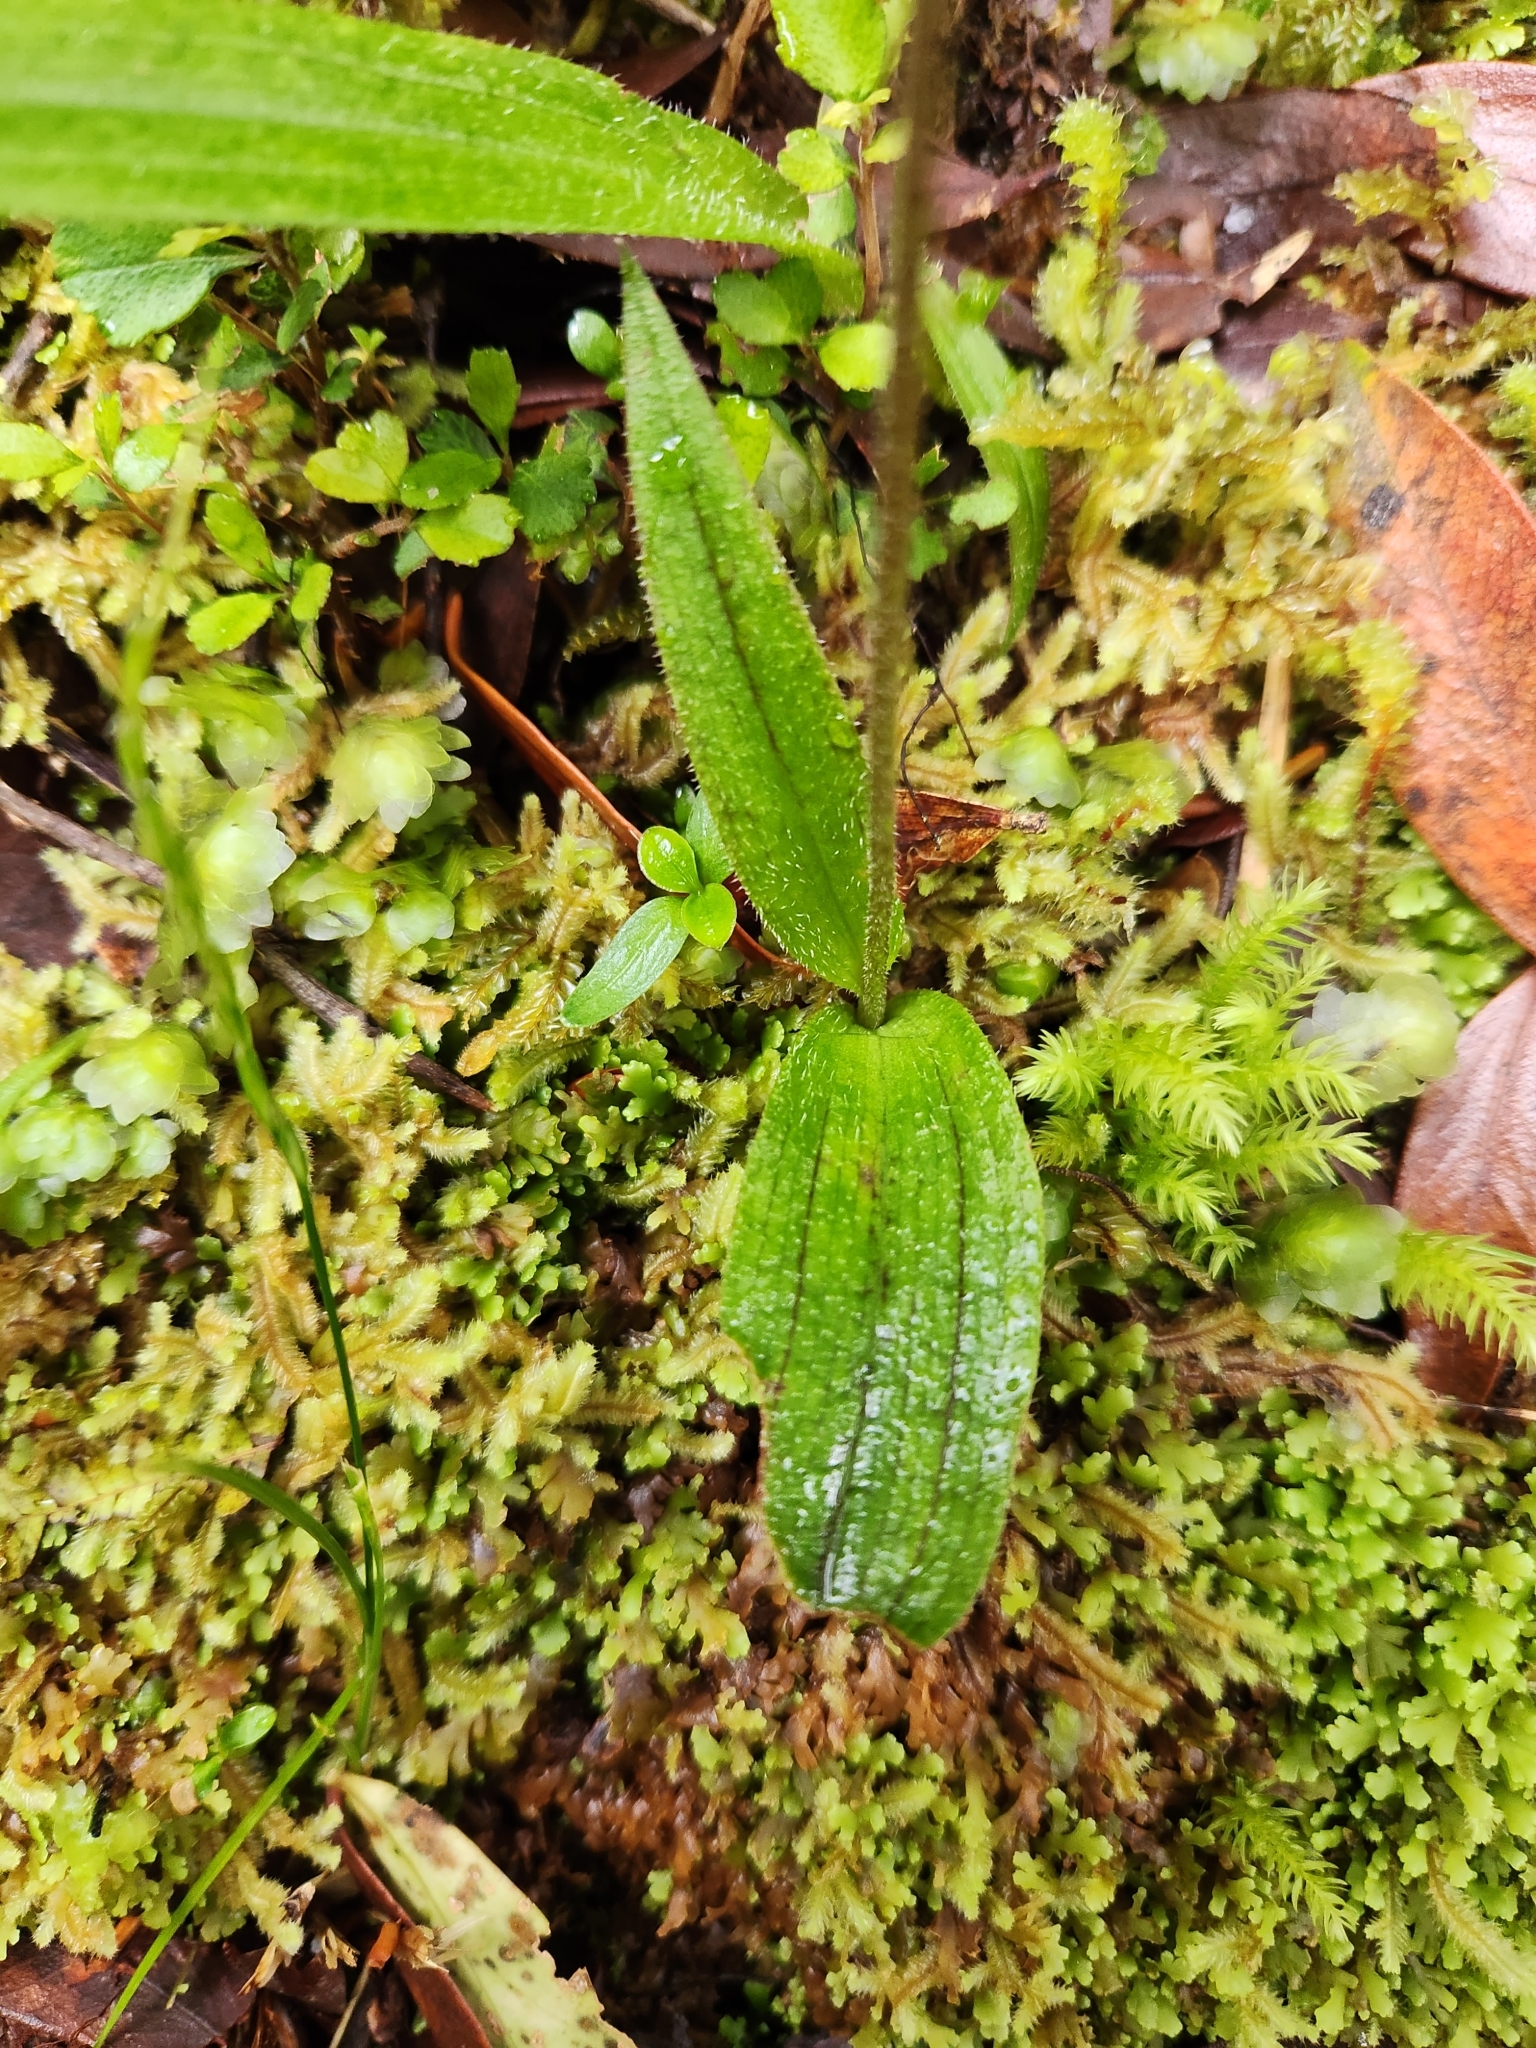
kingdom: Plantae
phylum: Tracheophyta
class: Liliopsida
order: Asparagales
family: Orchidaceae
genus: Aporostylis
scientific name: Aporostylis bifolia
